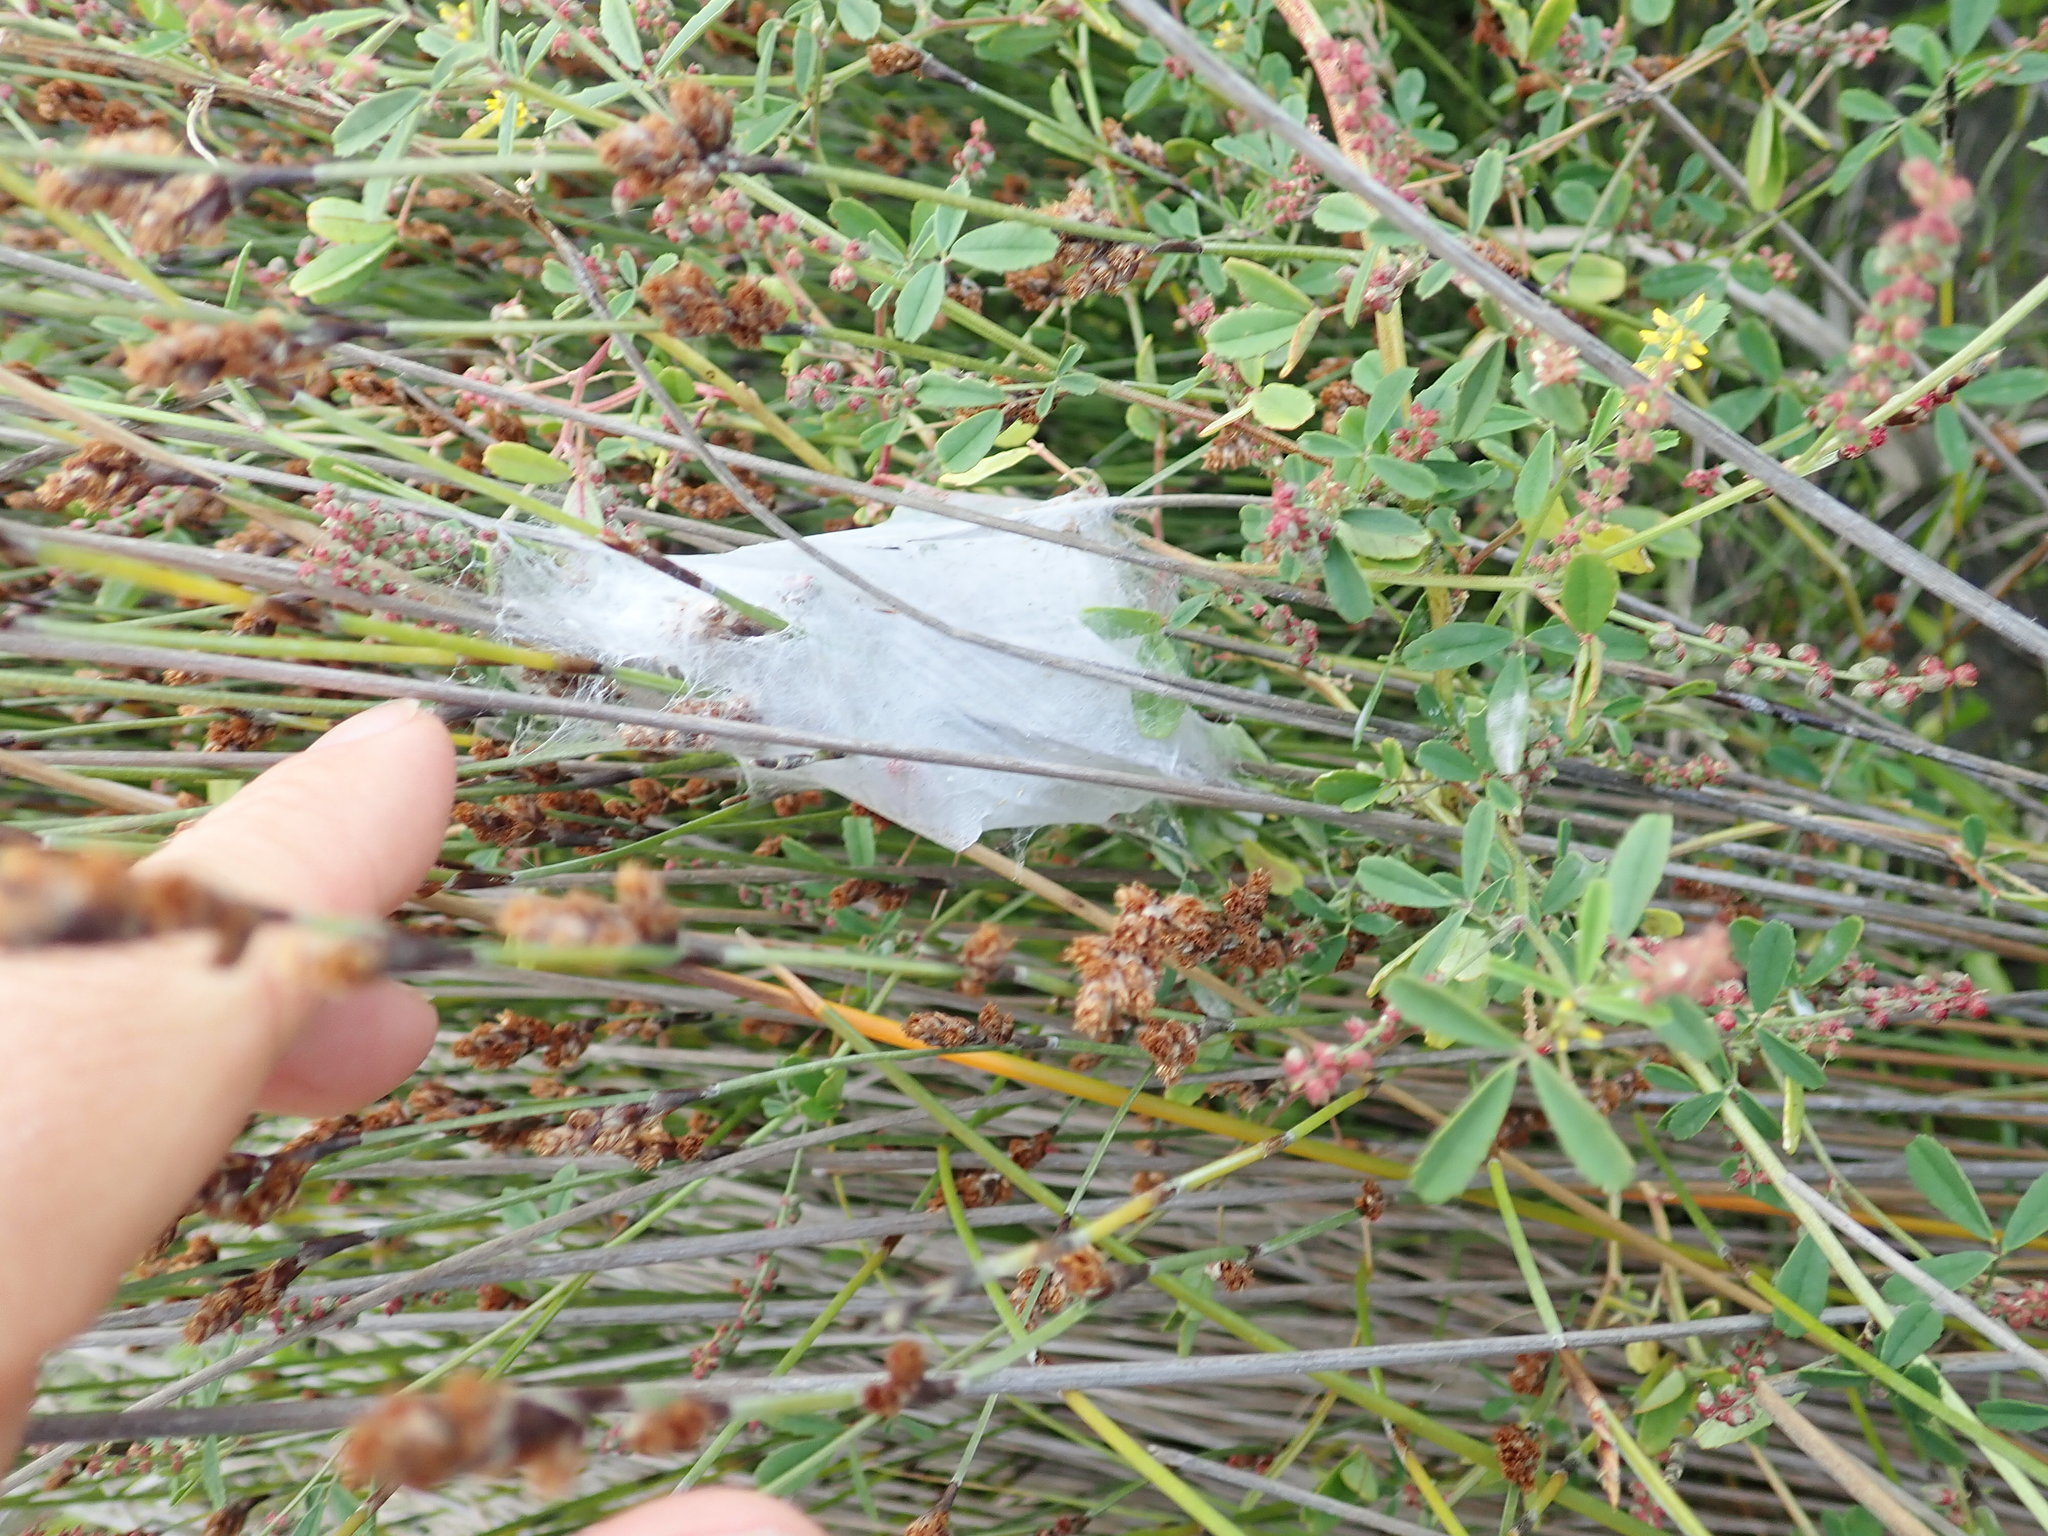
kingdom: Animalia
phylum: Arthropoda
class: Arachnida
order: Araneae
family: Pisauridae
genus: Dolomedes
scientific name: Dolomedes minor
